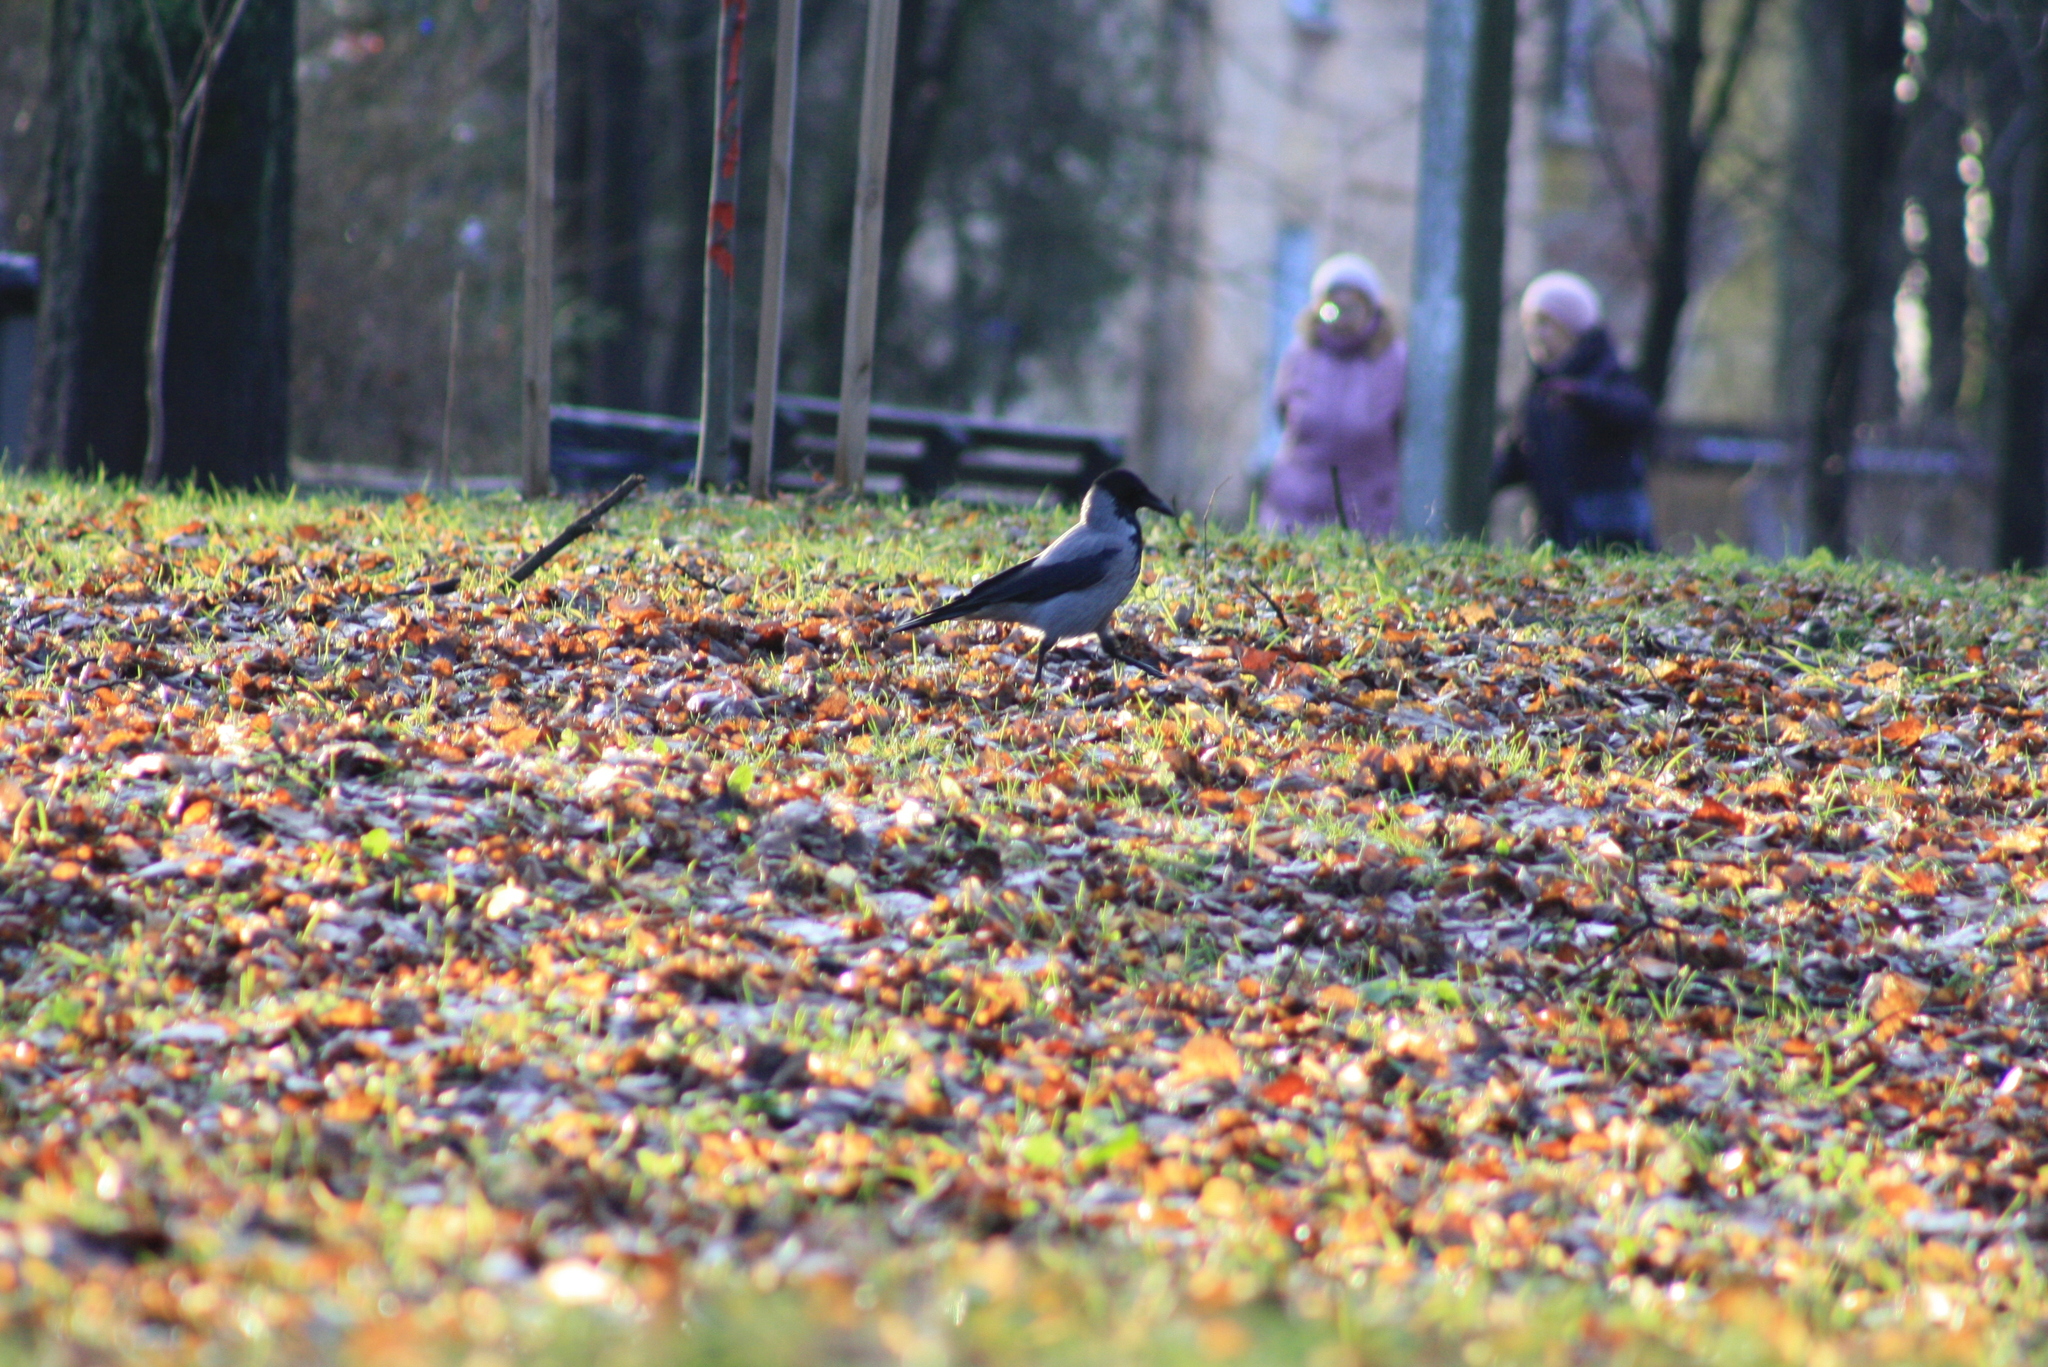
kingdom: Animalia
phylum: Chordata
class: Aves
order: Passeriformes
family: Corvidae
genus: Corvus
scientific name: Corvus cornix
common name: Hooded crow
